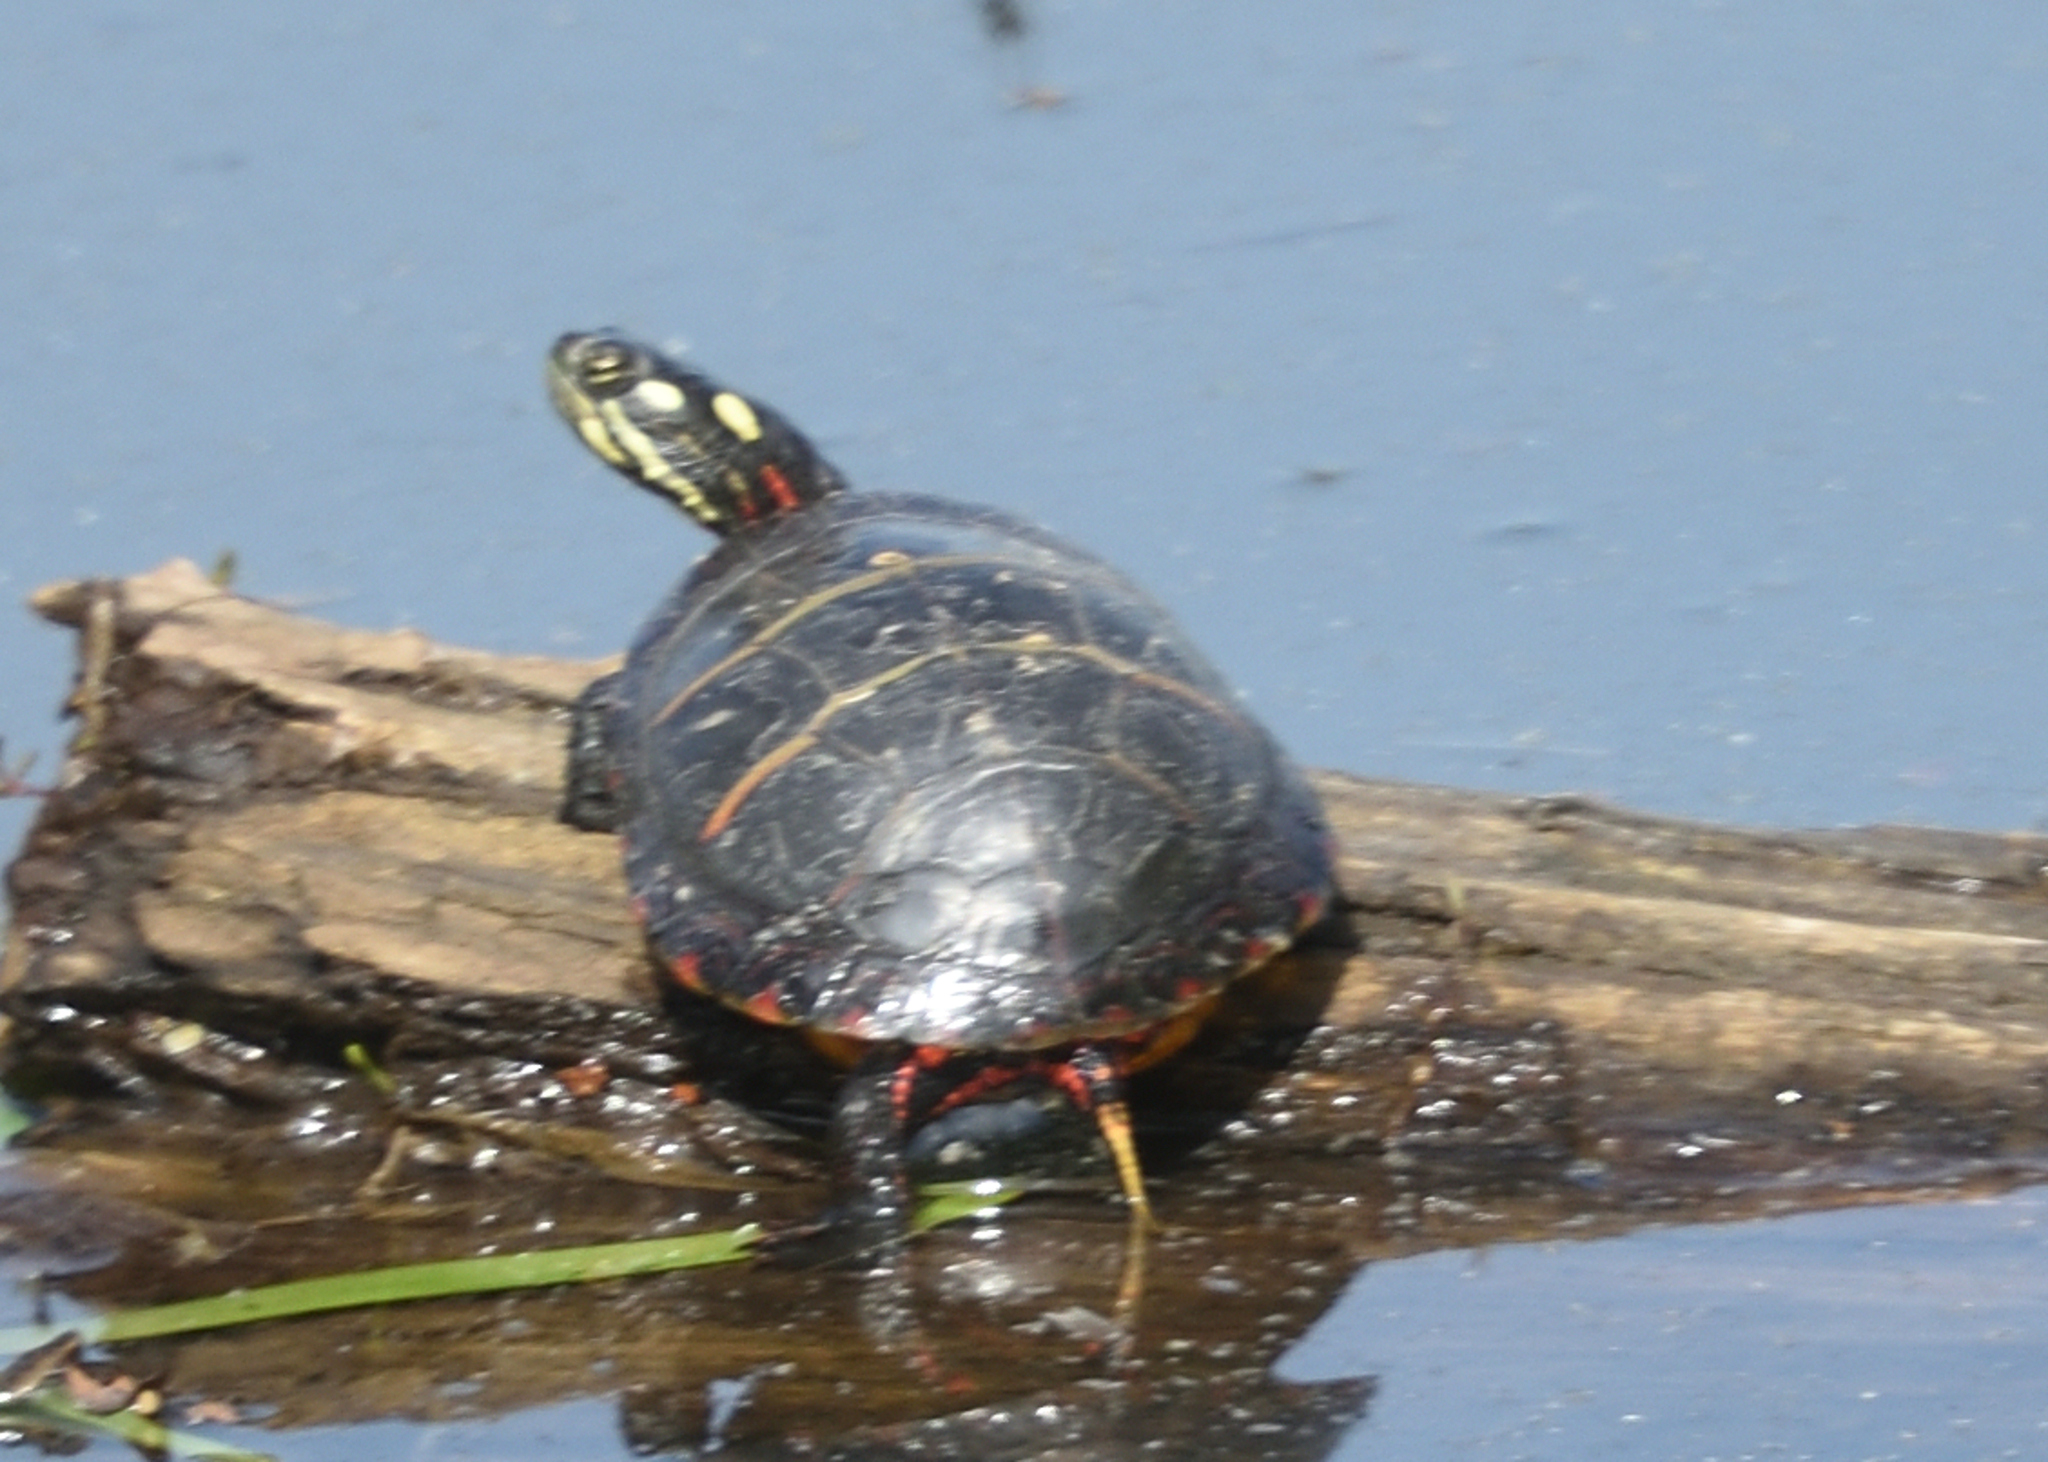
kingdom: Animalia
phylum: Chordata
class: Testudines
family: Emydidae
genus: Chrysemys
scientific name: Chrysemys picta
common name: Painted turtle
